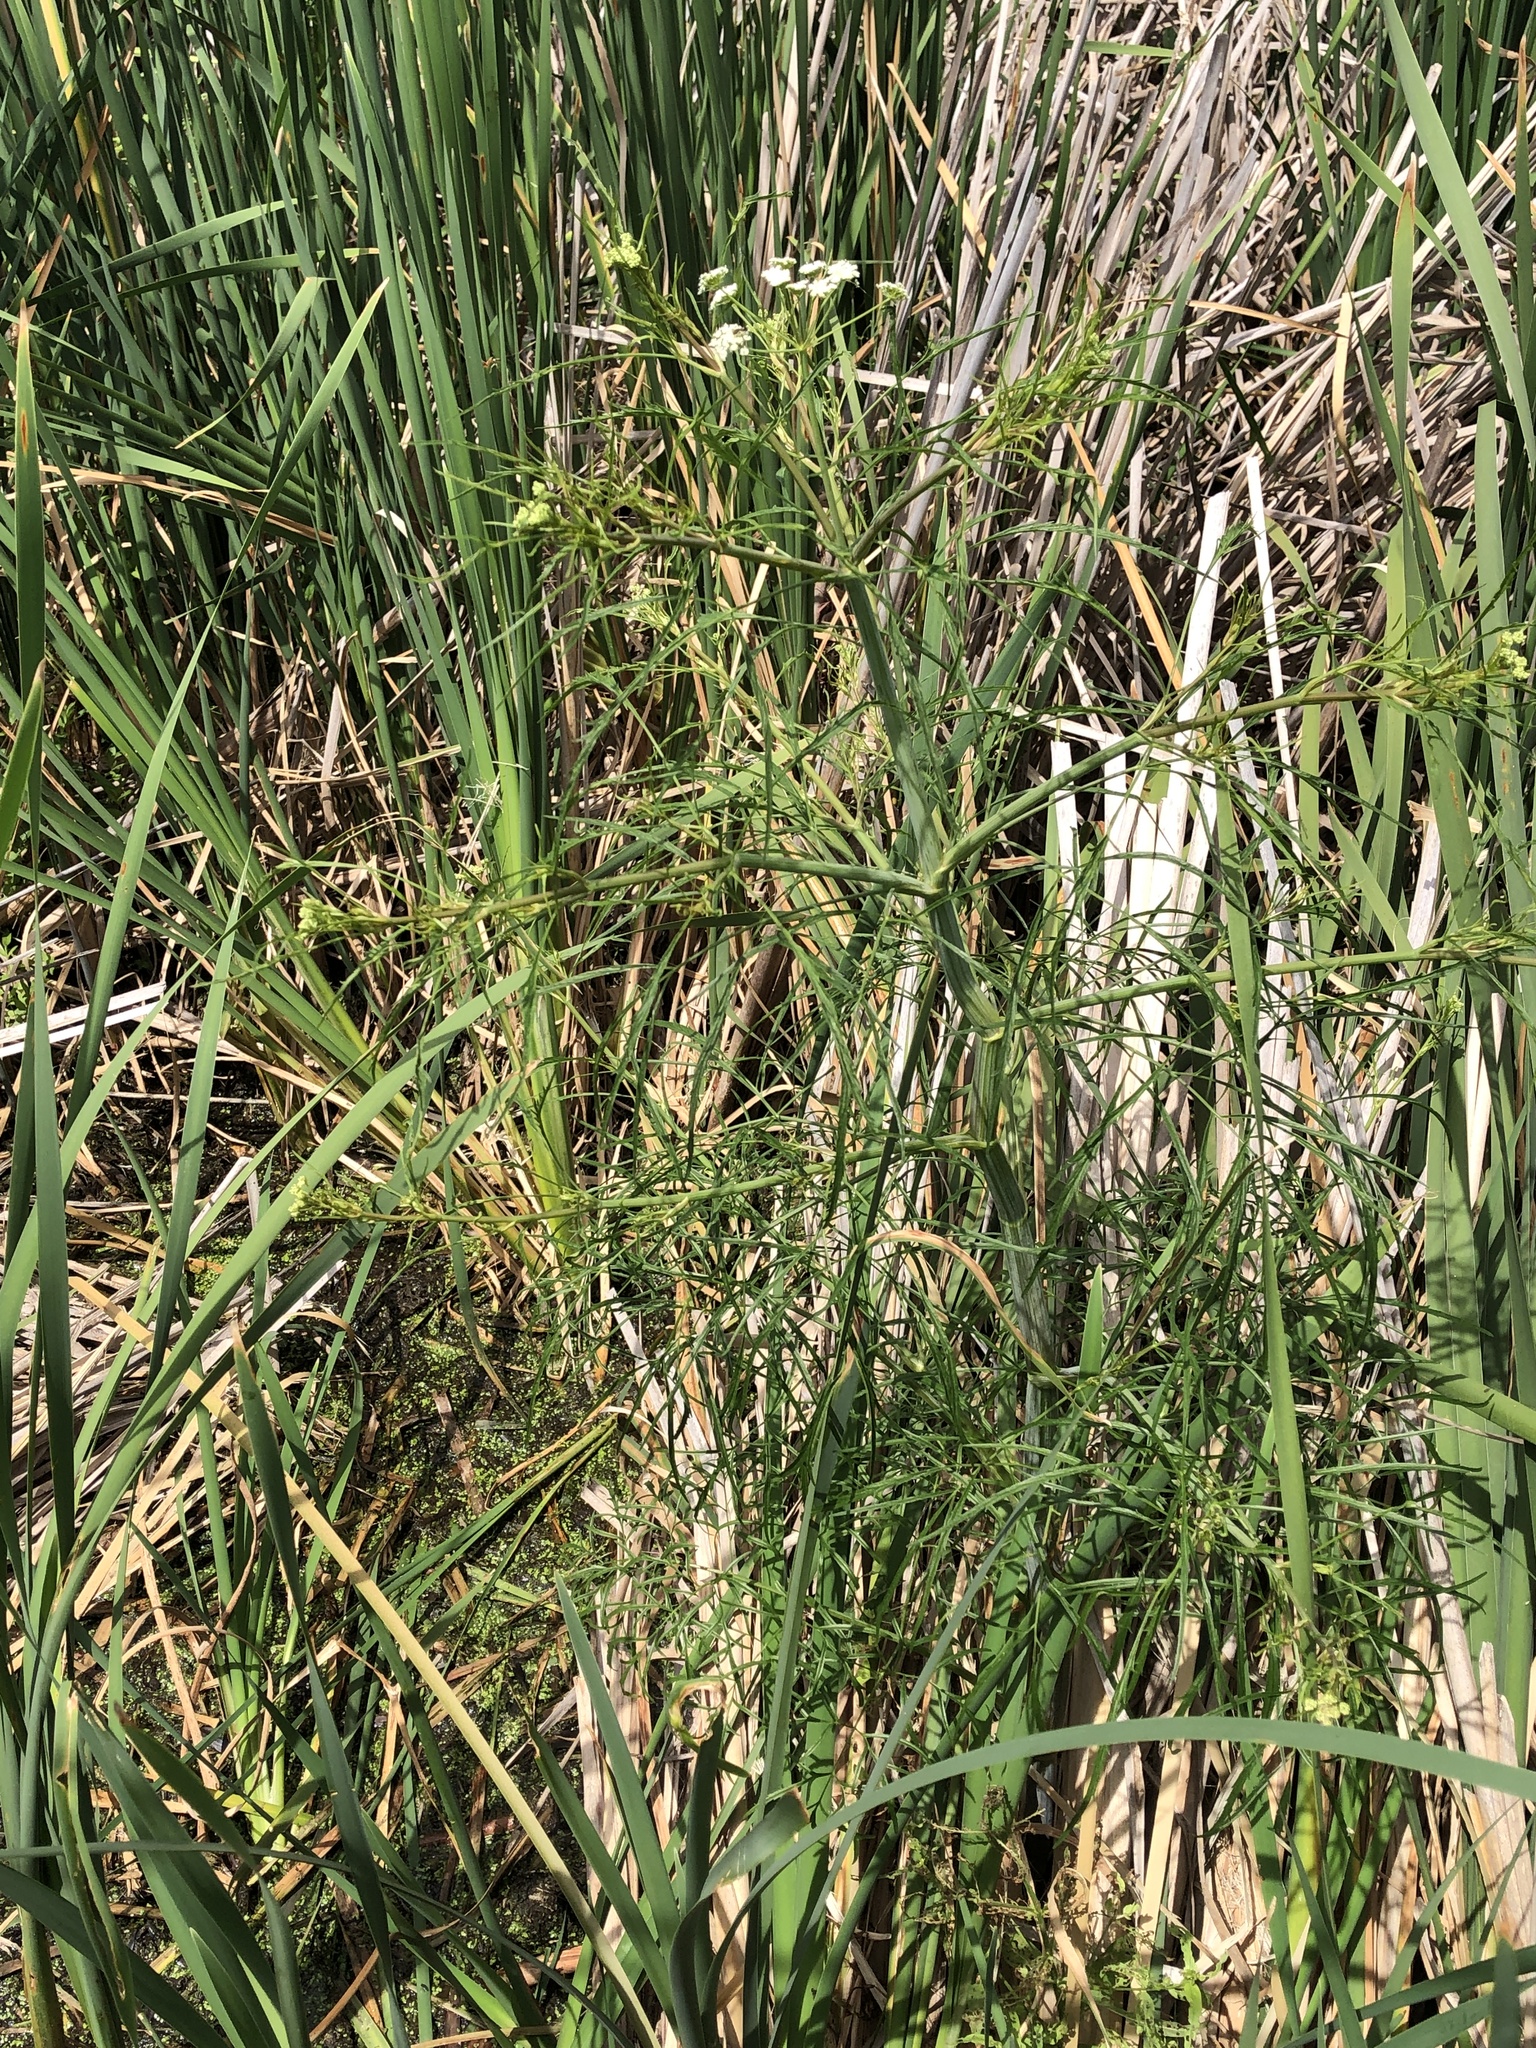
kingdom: Plantae
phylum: Tracheophyta
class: Magnoliopsida
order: Apiales
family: Apiaceae
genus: Cicuta
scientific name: Cicuta bulbifera
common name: Bulb-bearing water-hemlock
